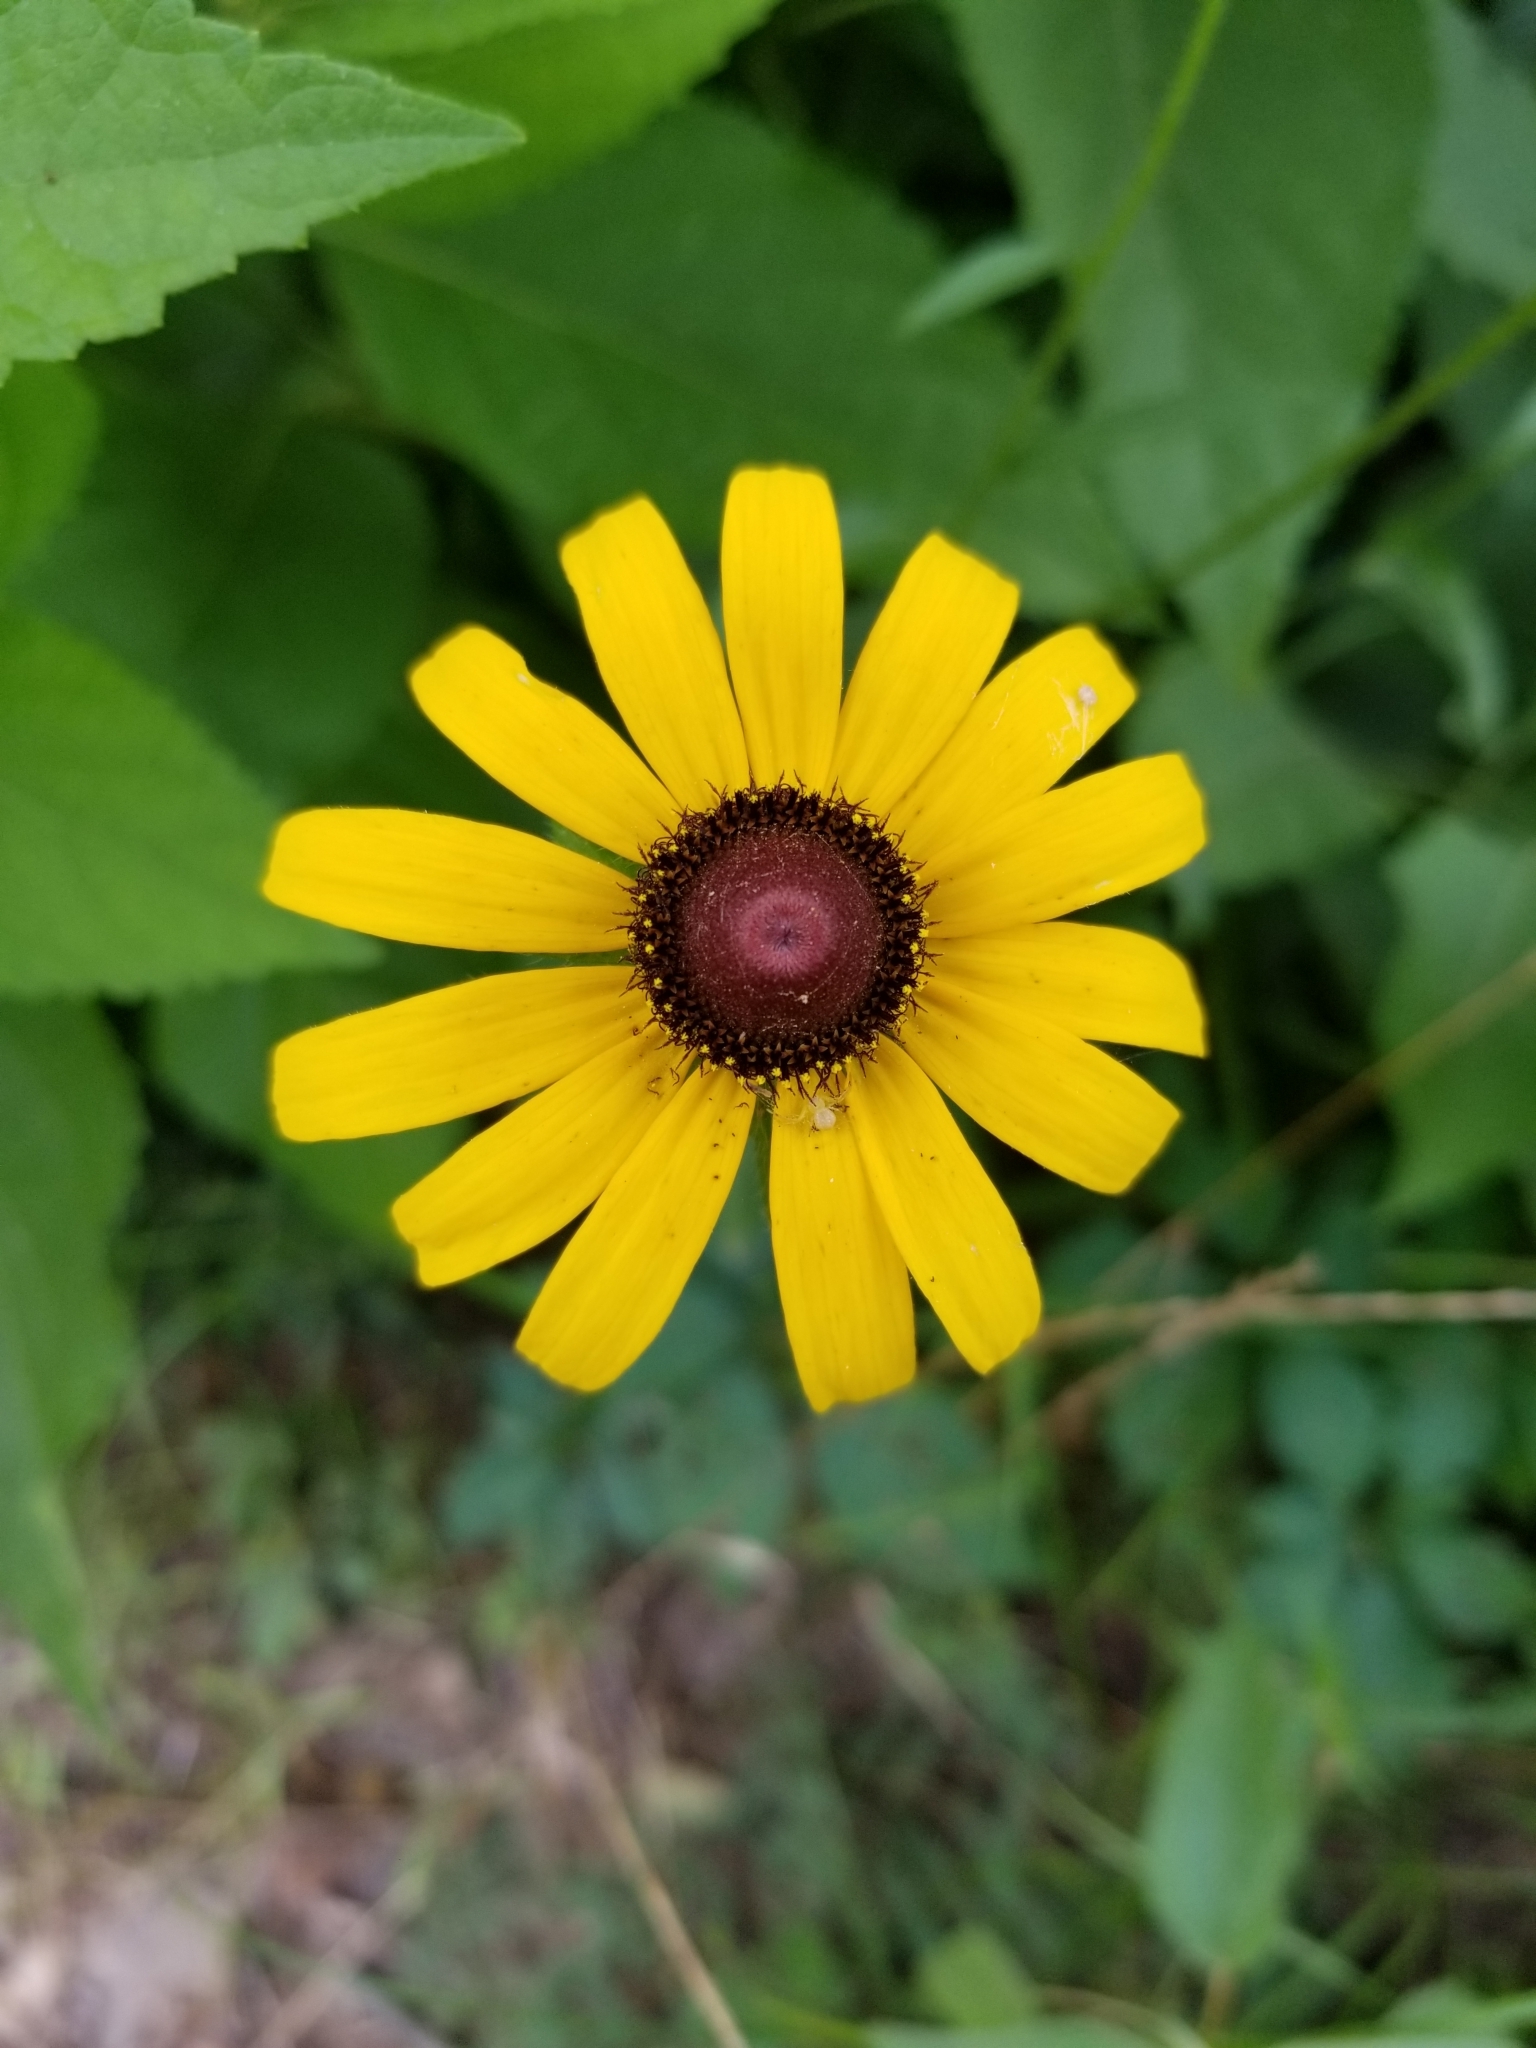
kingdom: Plantae
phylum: Tracheophyta
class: Magnoliopsida
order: Asterales
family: Asteraceae
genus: Rudbeckia
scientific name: Rudbeckia hirta
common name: Black-eyed-susan
